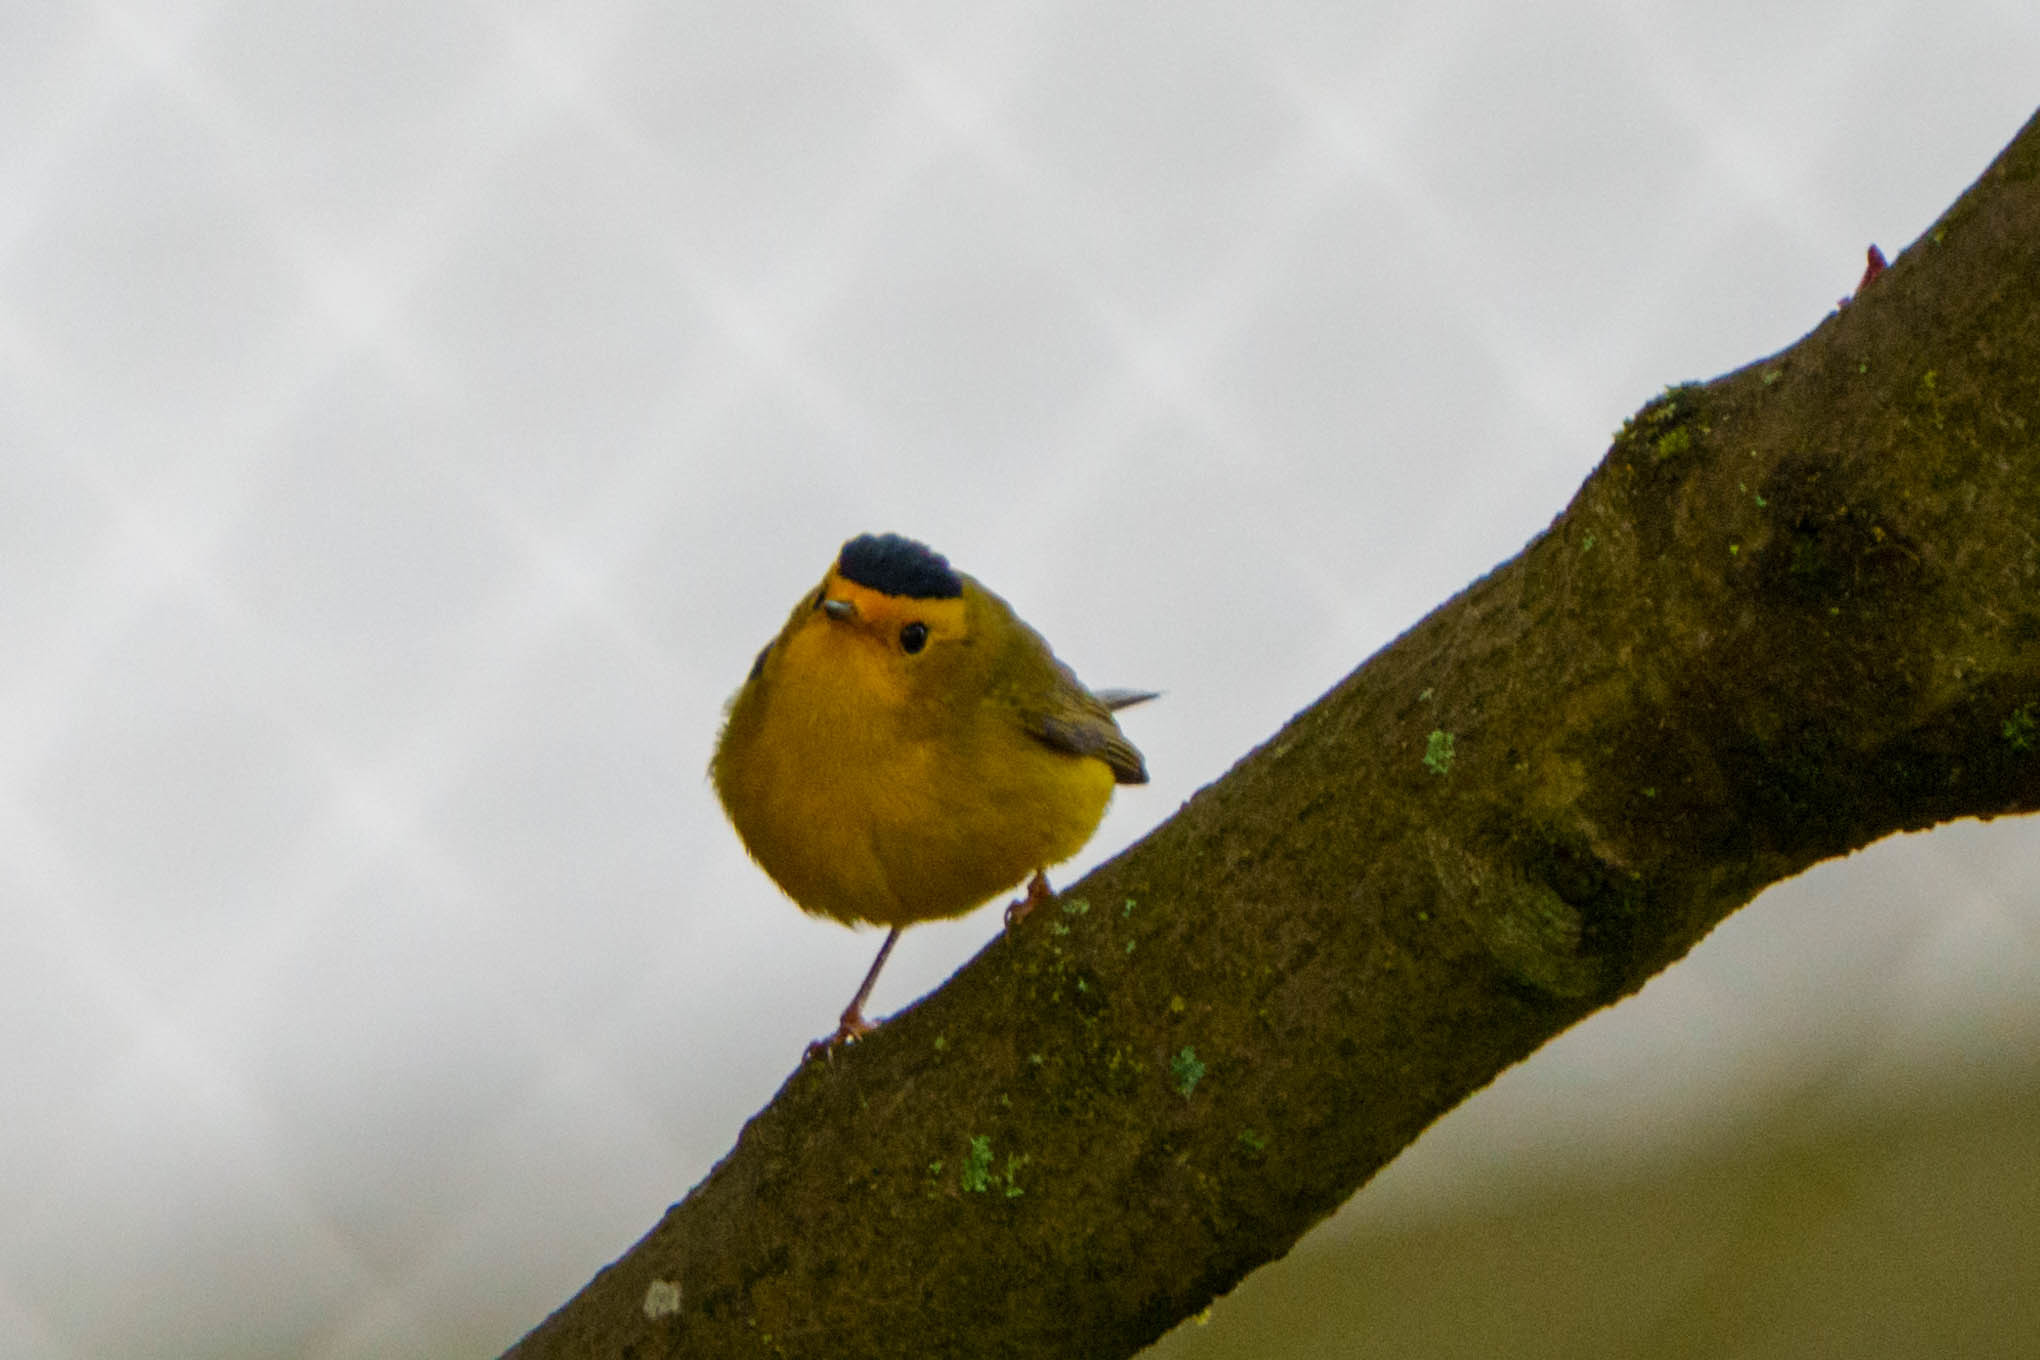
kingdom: Animalia
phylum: Chordata
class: Aves
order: Passeriformes
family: Parulidae
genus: Cardellina
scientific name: Cardellina pusilla
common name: Wilson's warbler
